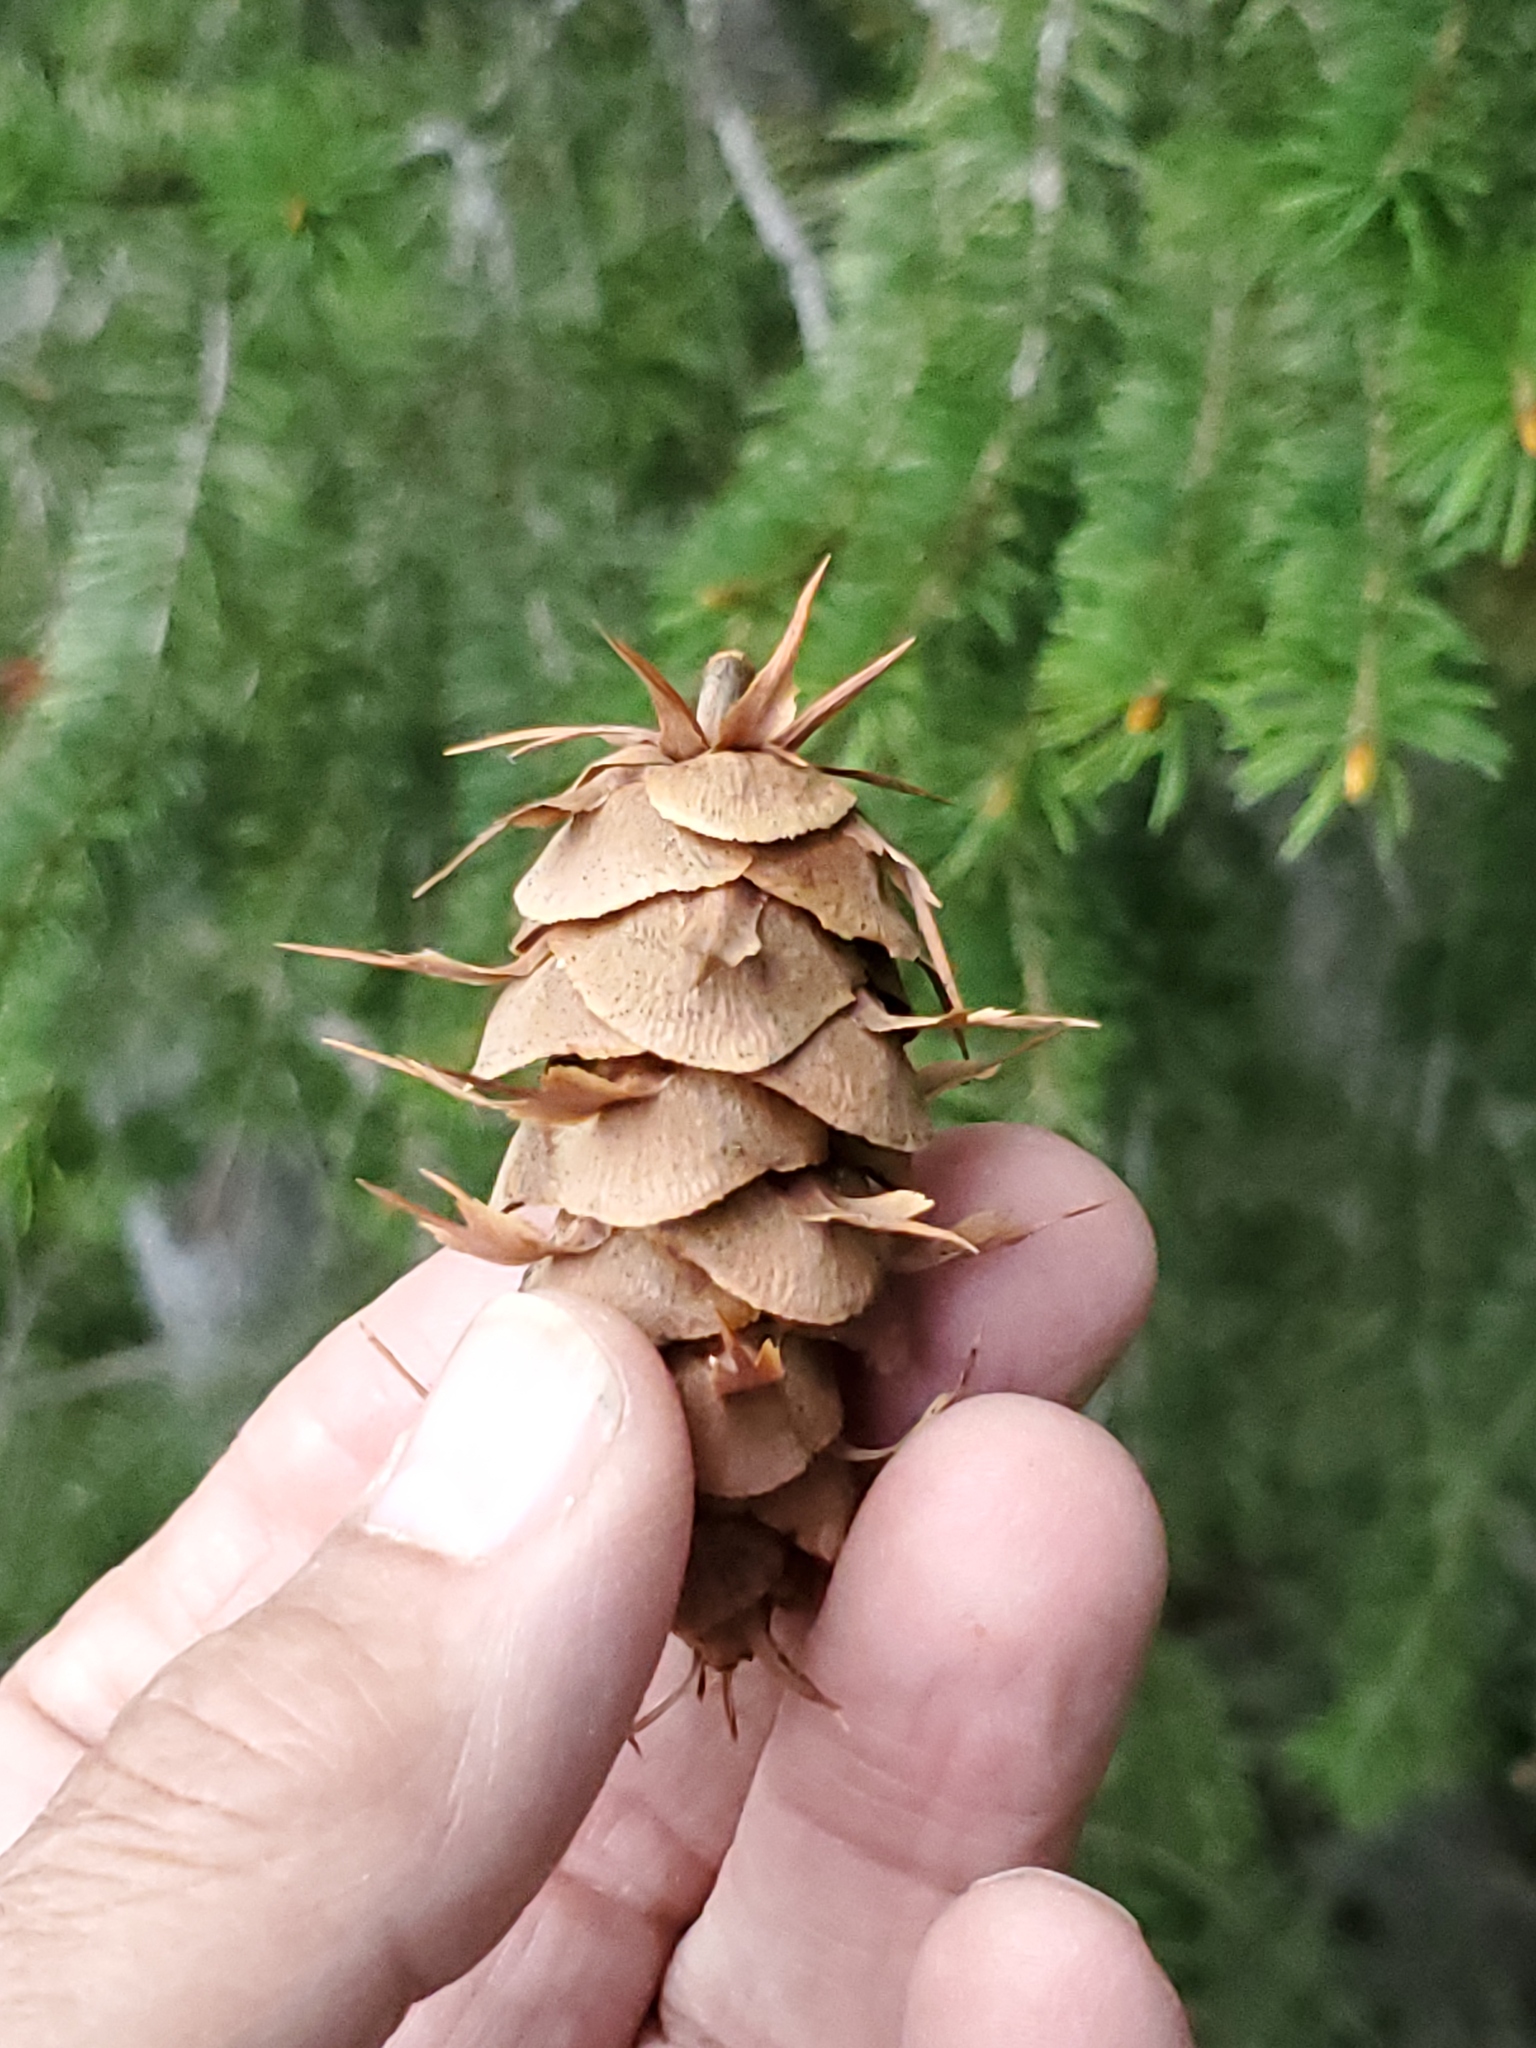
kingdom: Plantae
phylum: Tracheophyta
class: Pinopsida
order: Pinales
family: Pinaceae
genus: Pseudotsuga
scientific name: Pseudotsuga menziesii
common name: Douglas fir
